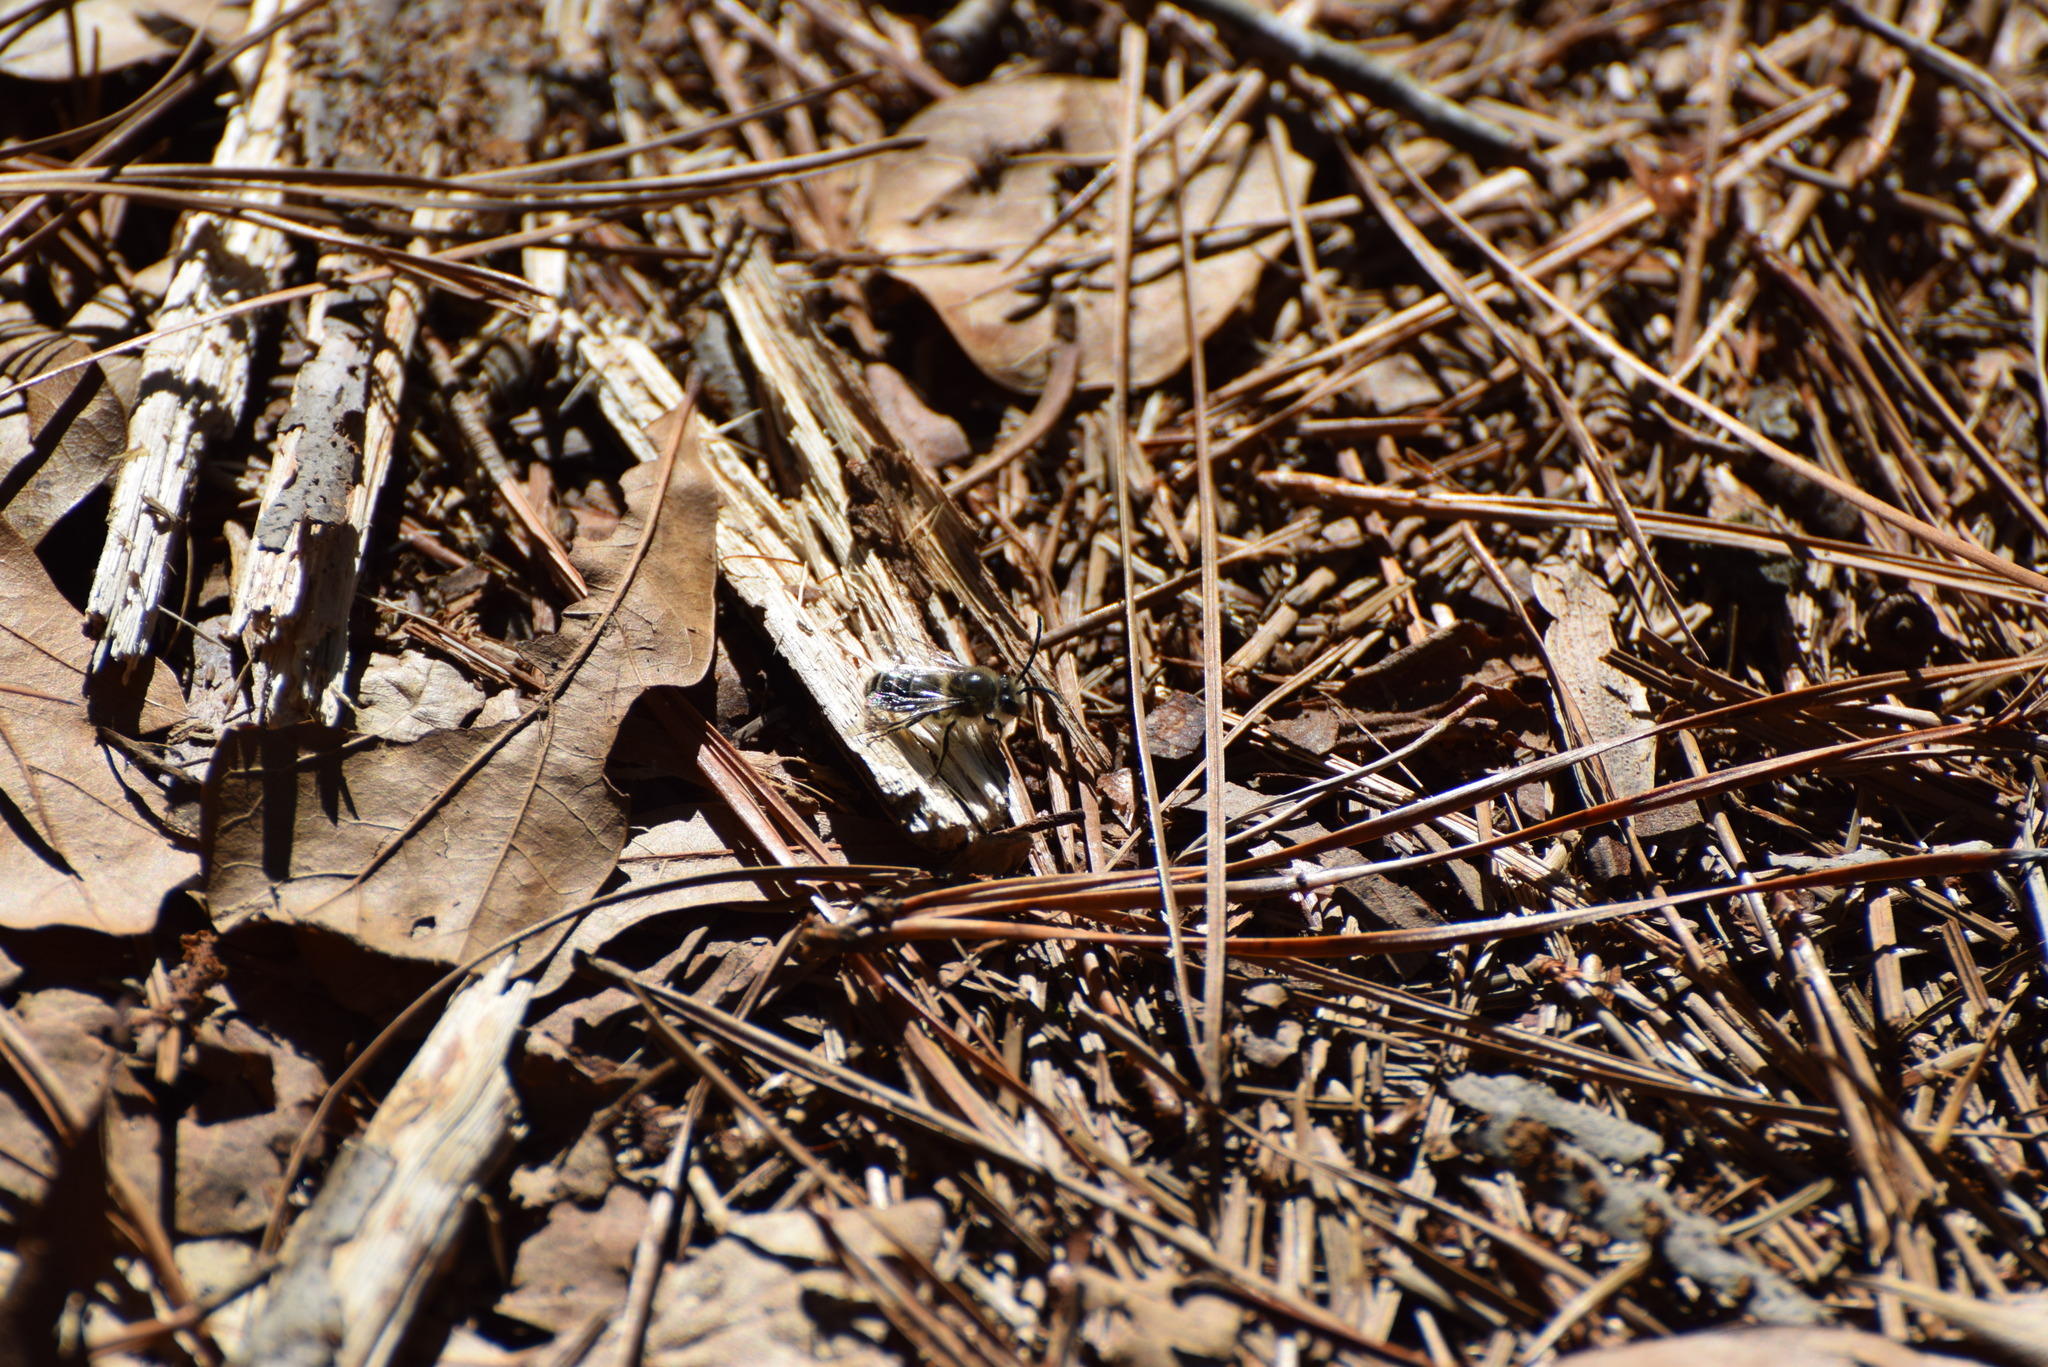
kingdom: Animalia
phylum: Arthropoda
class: Insecta
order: Hymenoptera
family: Colletidae
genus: Colletes
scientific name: Colletes inaequalis
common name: Unequal cellophane bee
